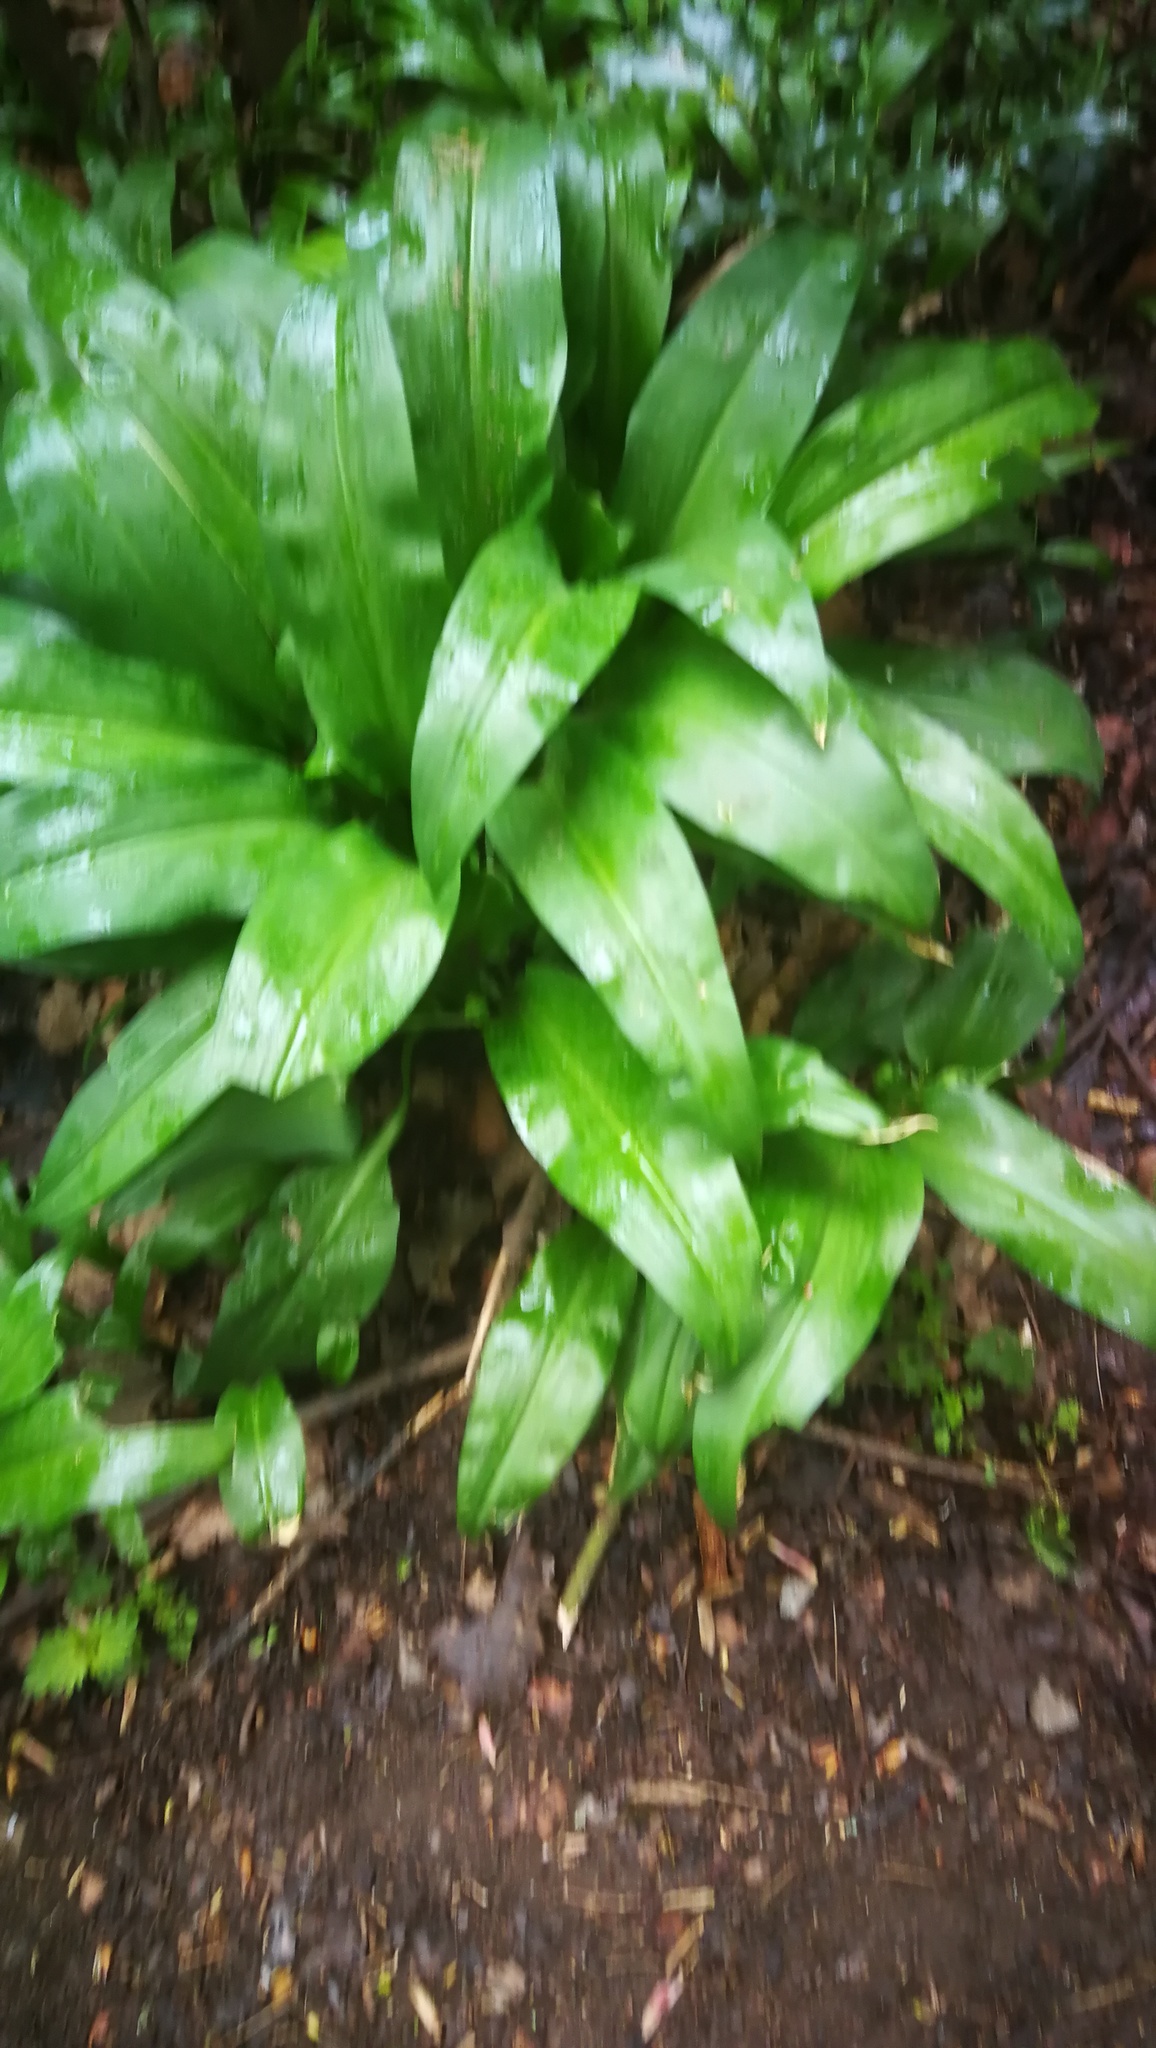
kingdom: Plantae
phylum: Tracheophyta
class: Liliopsida
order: Asparagales
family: Amaryllidaceae
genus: Allium
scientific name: Allium ursinum
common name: Ramsons
